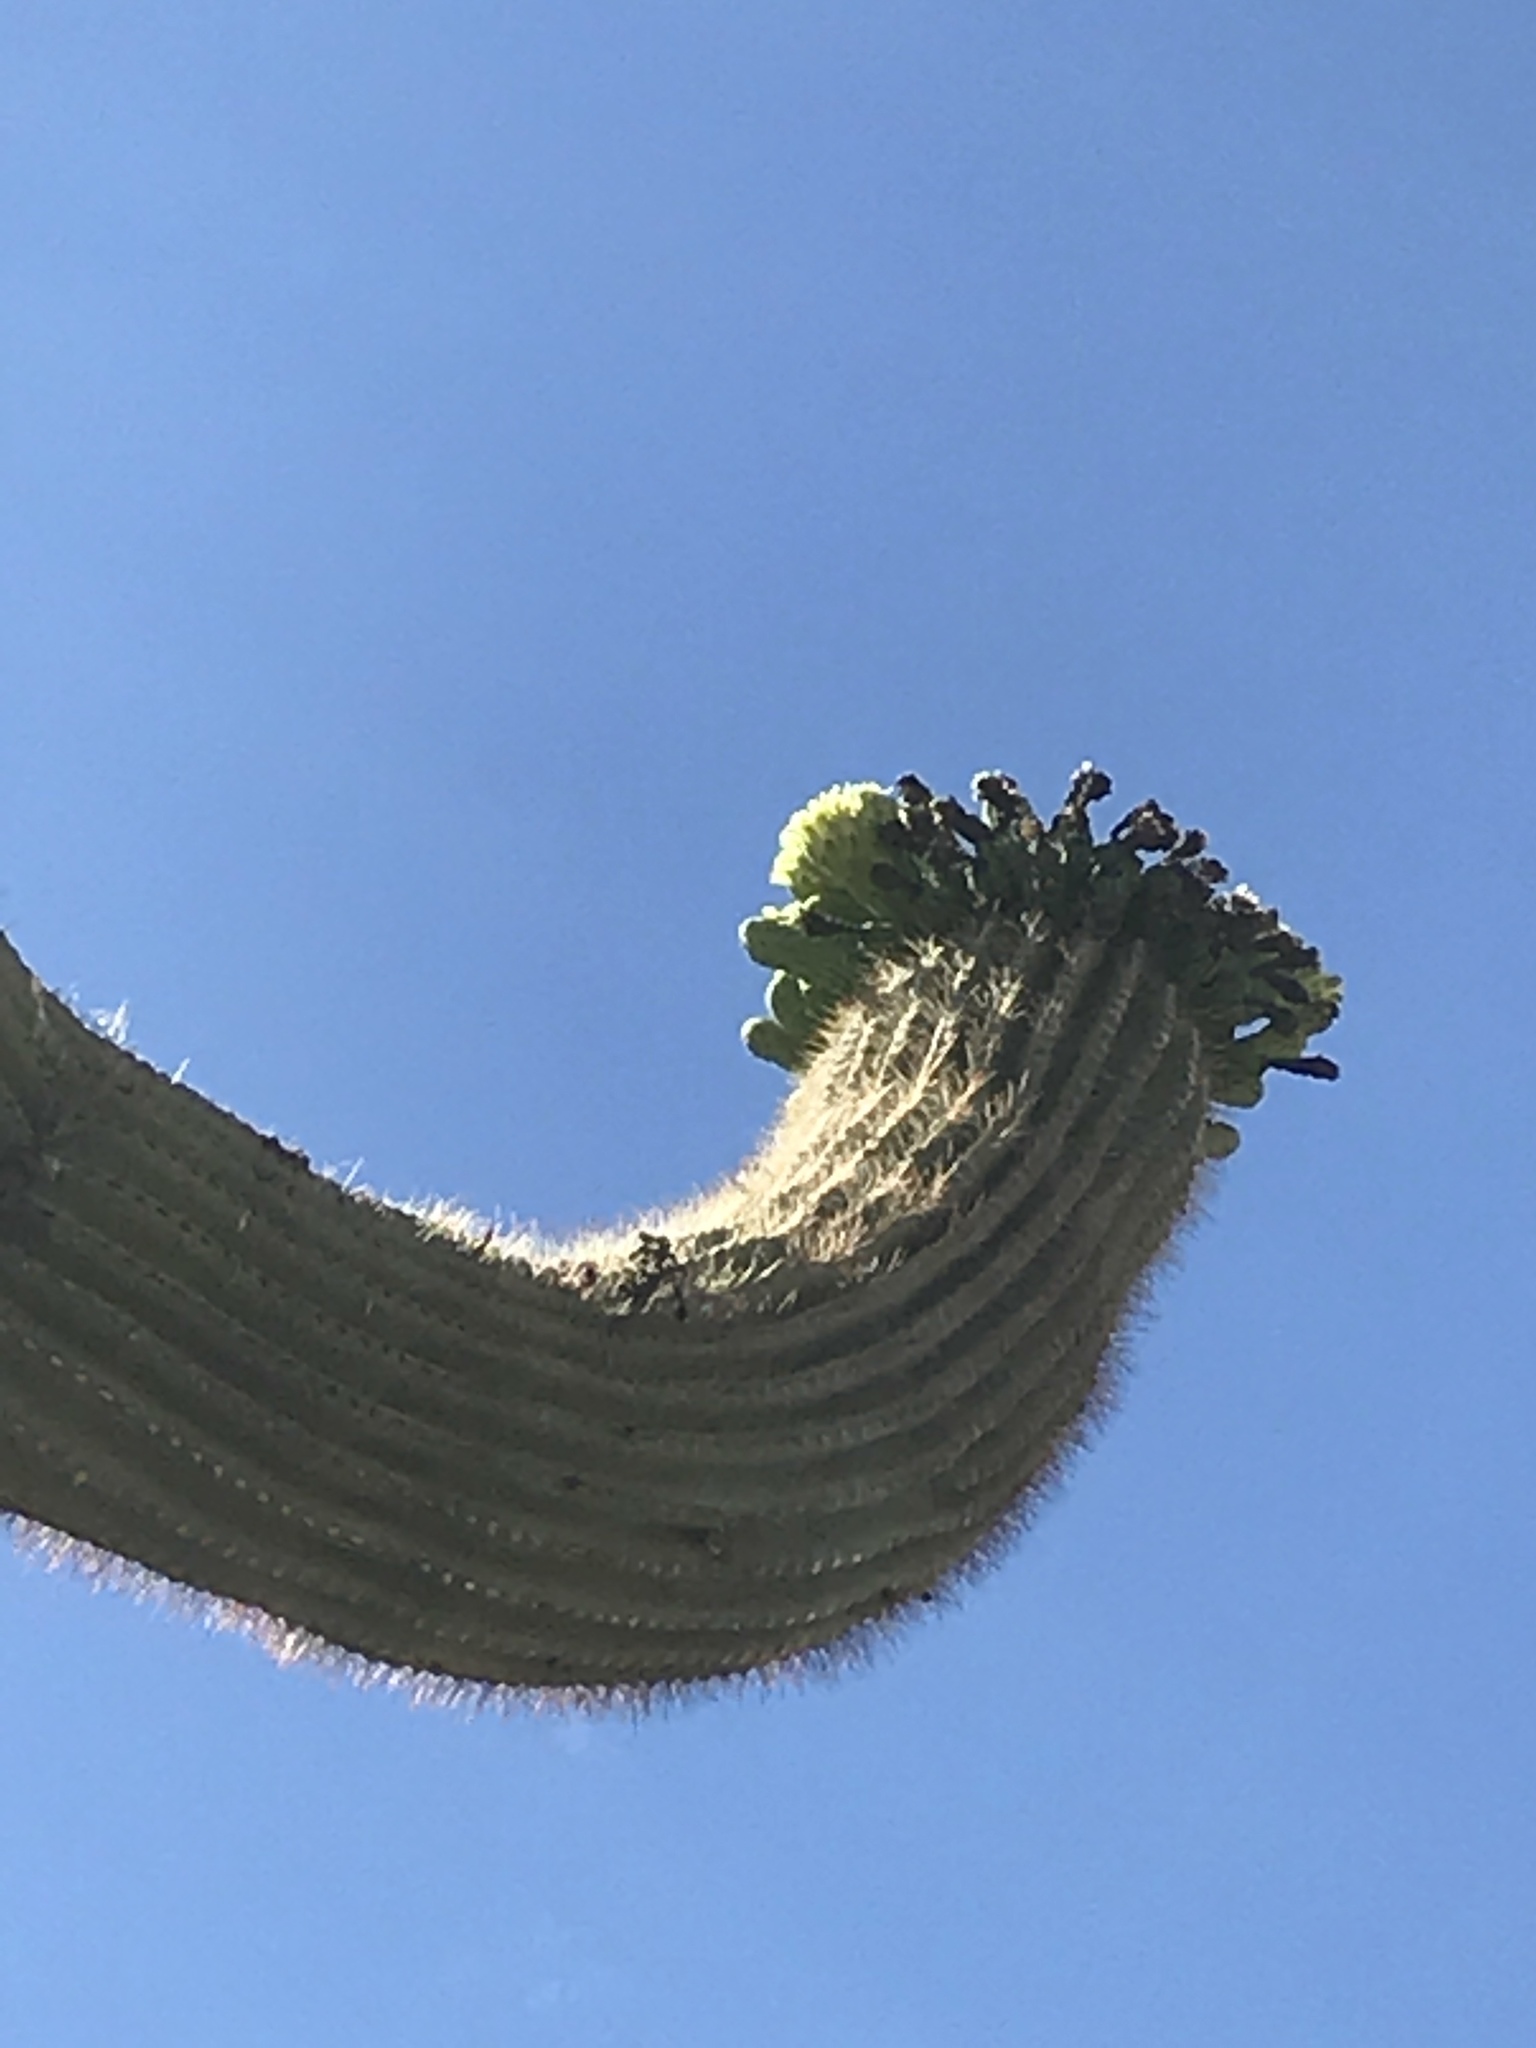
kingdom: Plantae
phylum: Tracheophyta
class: Magnoliopsida
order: Caryophyllales
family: Cactaceae
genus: Carnegiea
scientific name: Carnegiea gigantea
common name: Saguaro
